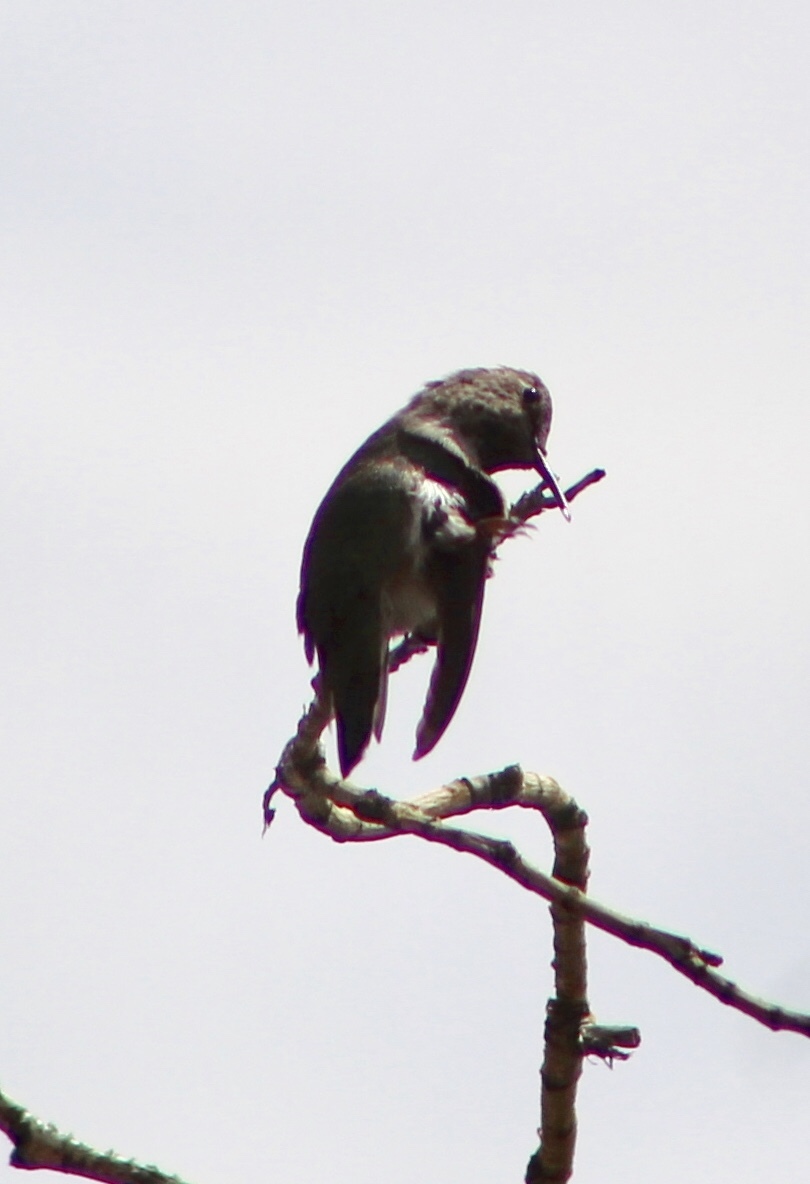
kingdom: Animalia
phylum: Chordata
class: Aves
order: Apodiformes
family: Trochilidae
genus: Calypte
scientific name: Calypte anna
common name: Anna's hummingbird
